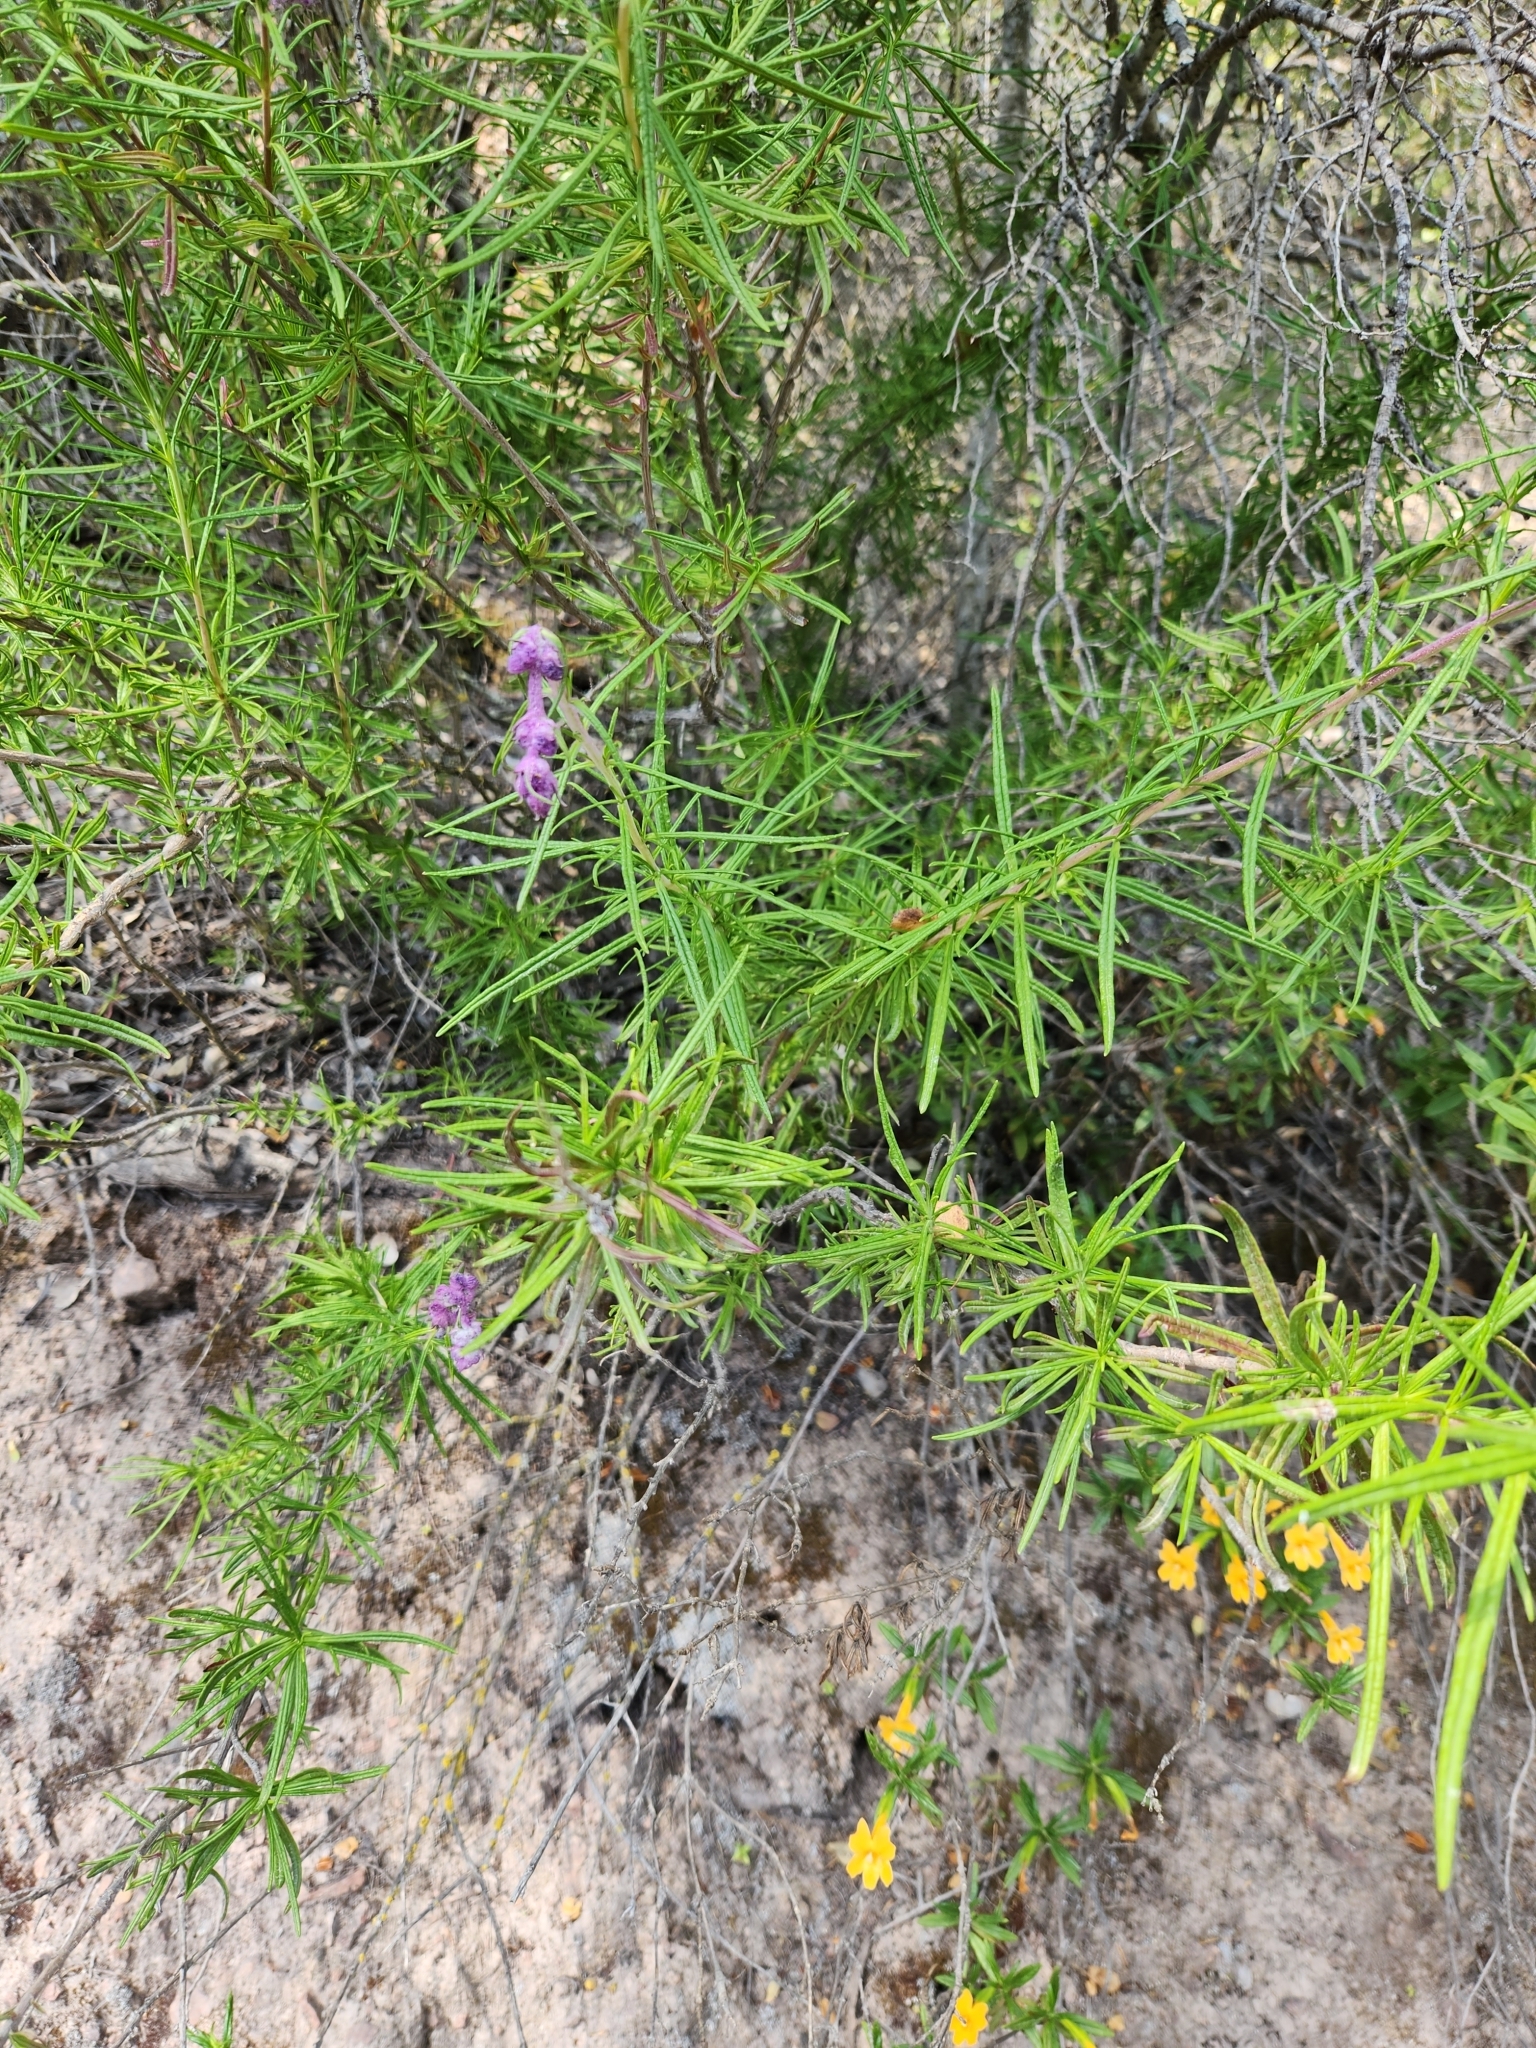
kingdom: Plantae
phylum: Tracheophyta
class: Magnoliopsida
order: Lamiales
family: Lamiaceae
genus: Trichostema
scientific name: Trichostema lanatum
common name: Woolly bluecurls
